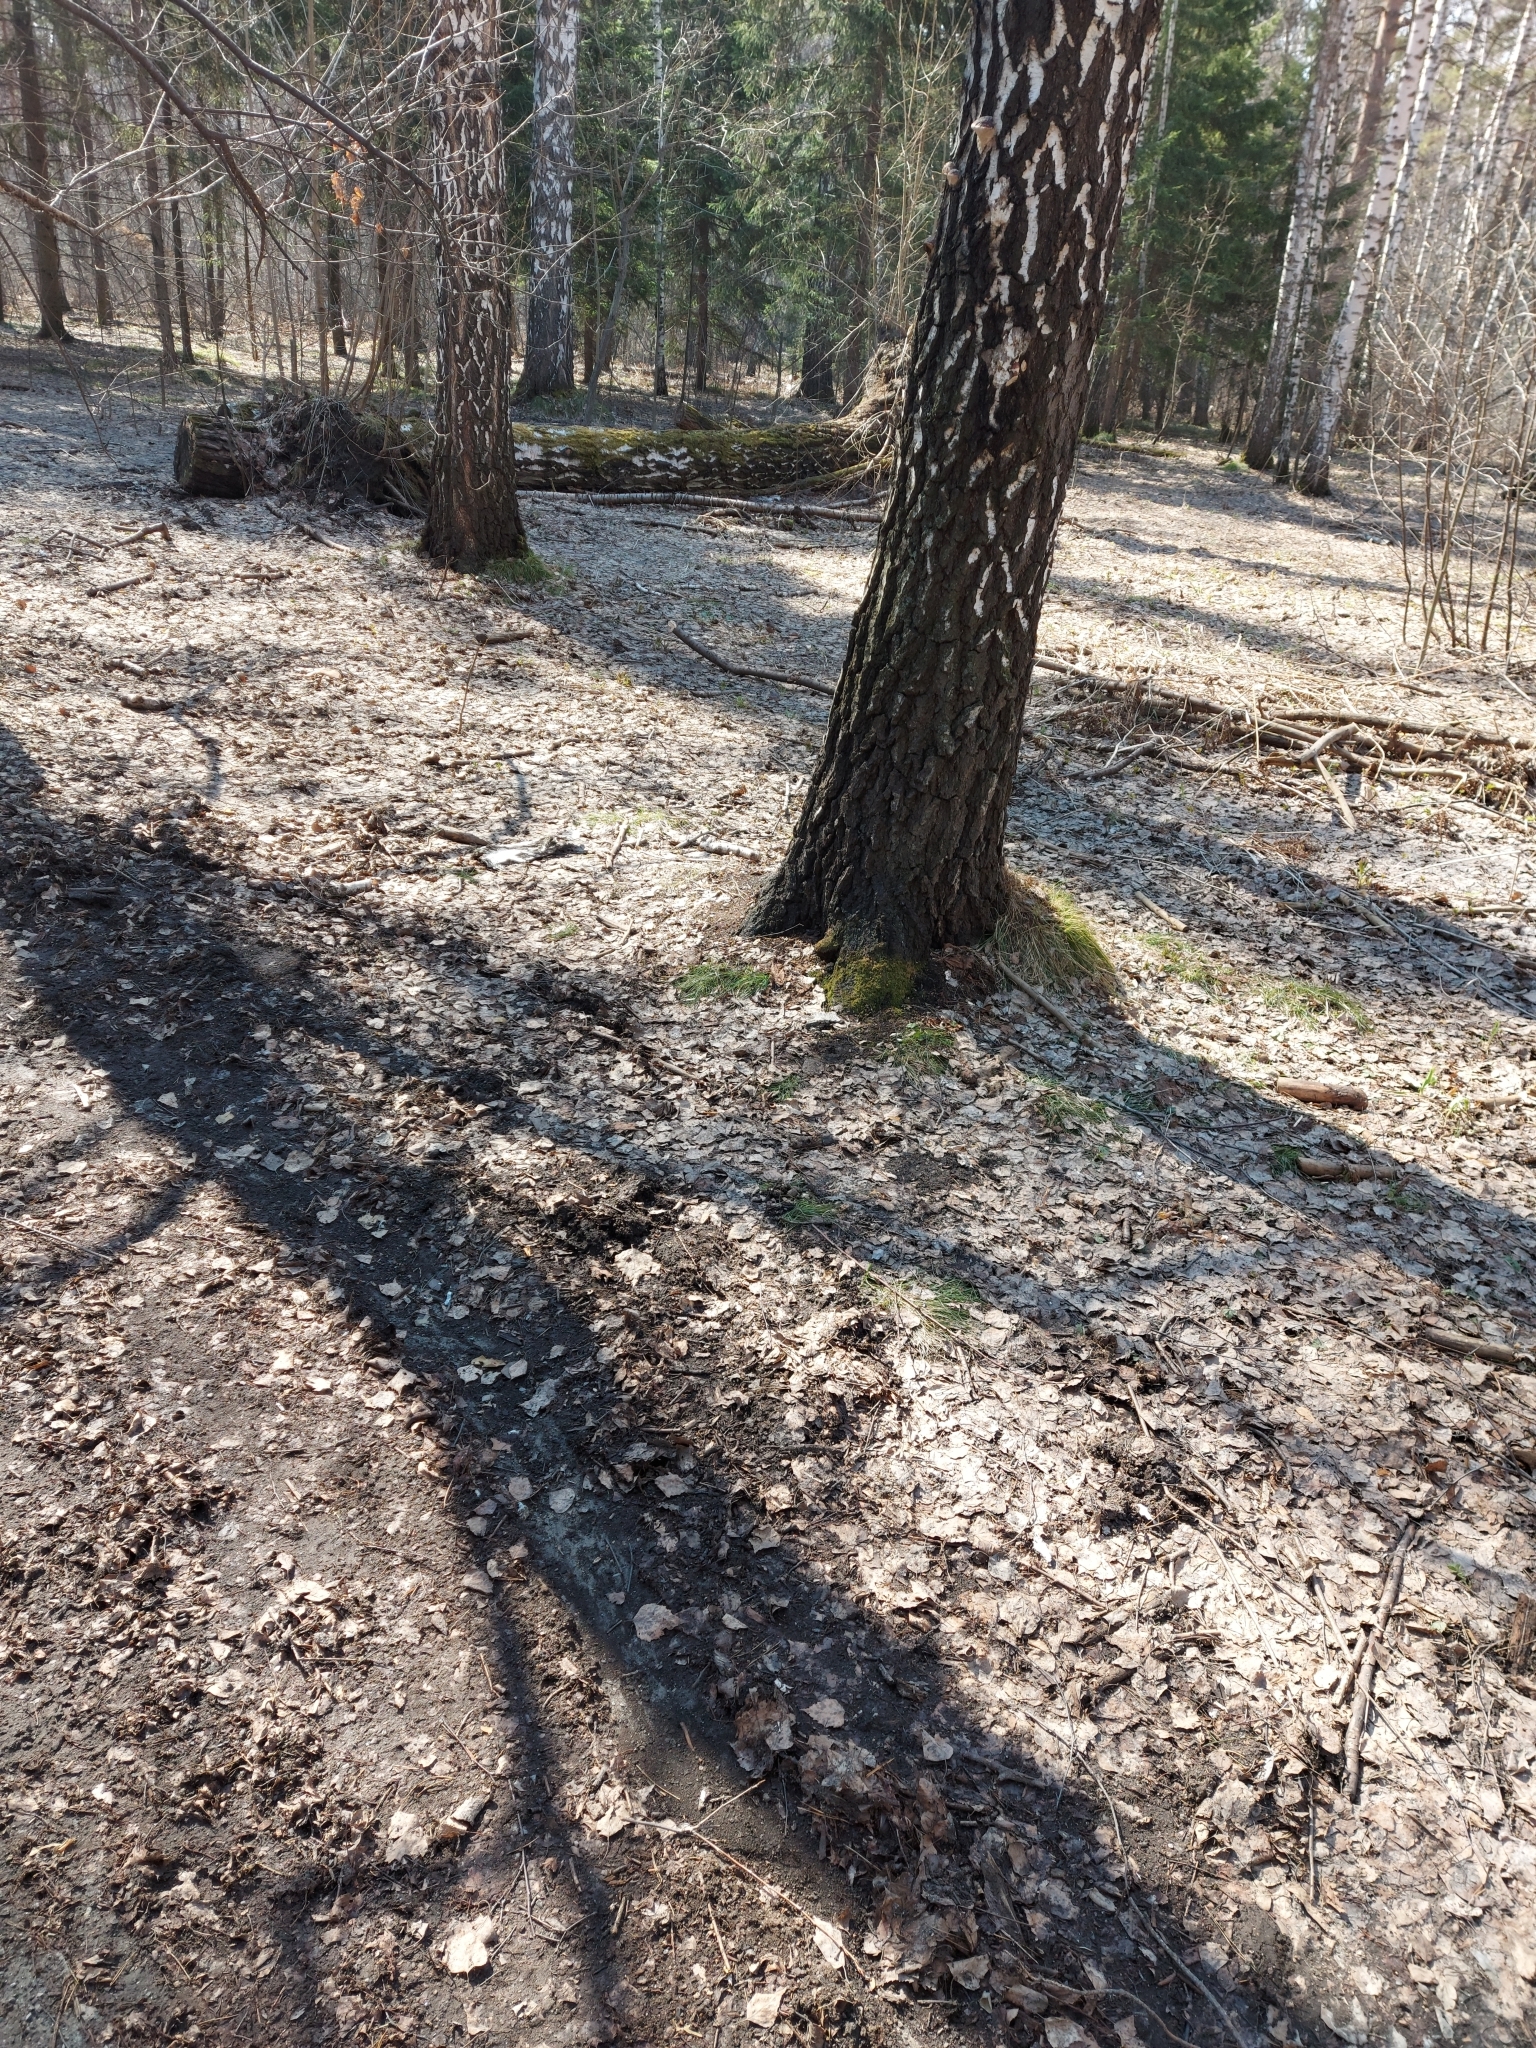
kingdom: Animalia
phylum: Chordata
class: Aves
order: Passeriformes
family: Fringillidae
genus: Fringilla
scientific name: Fringilla coelebs
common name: Common chaffinch
